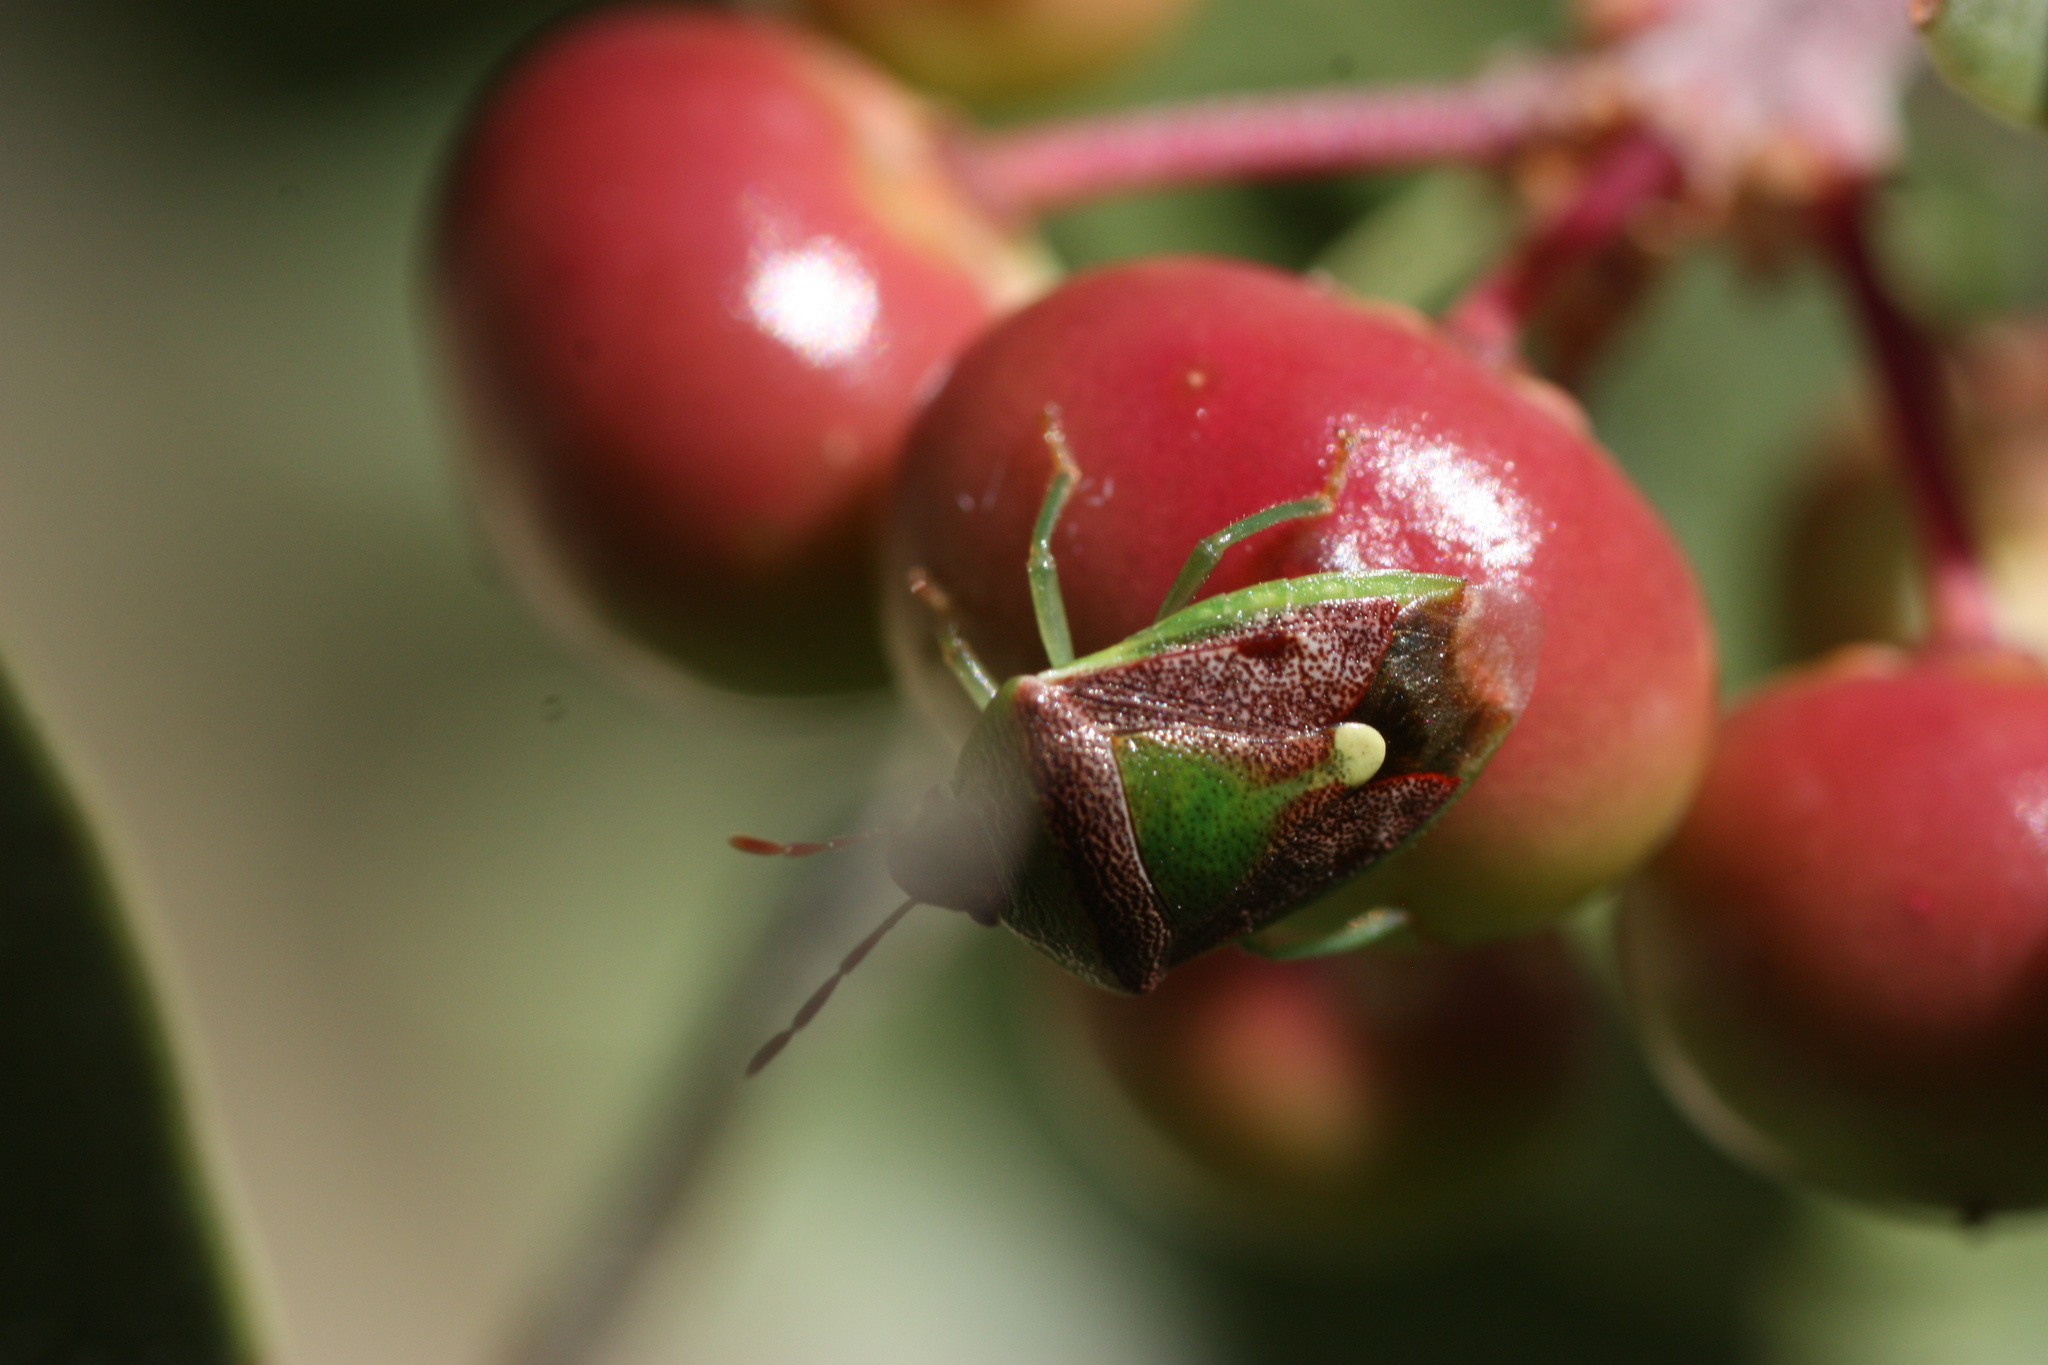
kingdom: Animalia
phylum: Arthropoda
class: Insecta
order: Hemiptera
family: Pentatomidae
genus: Banasa
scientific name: Banasa dimidiata
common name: Green burgundy stink bug
